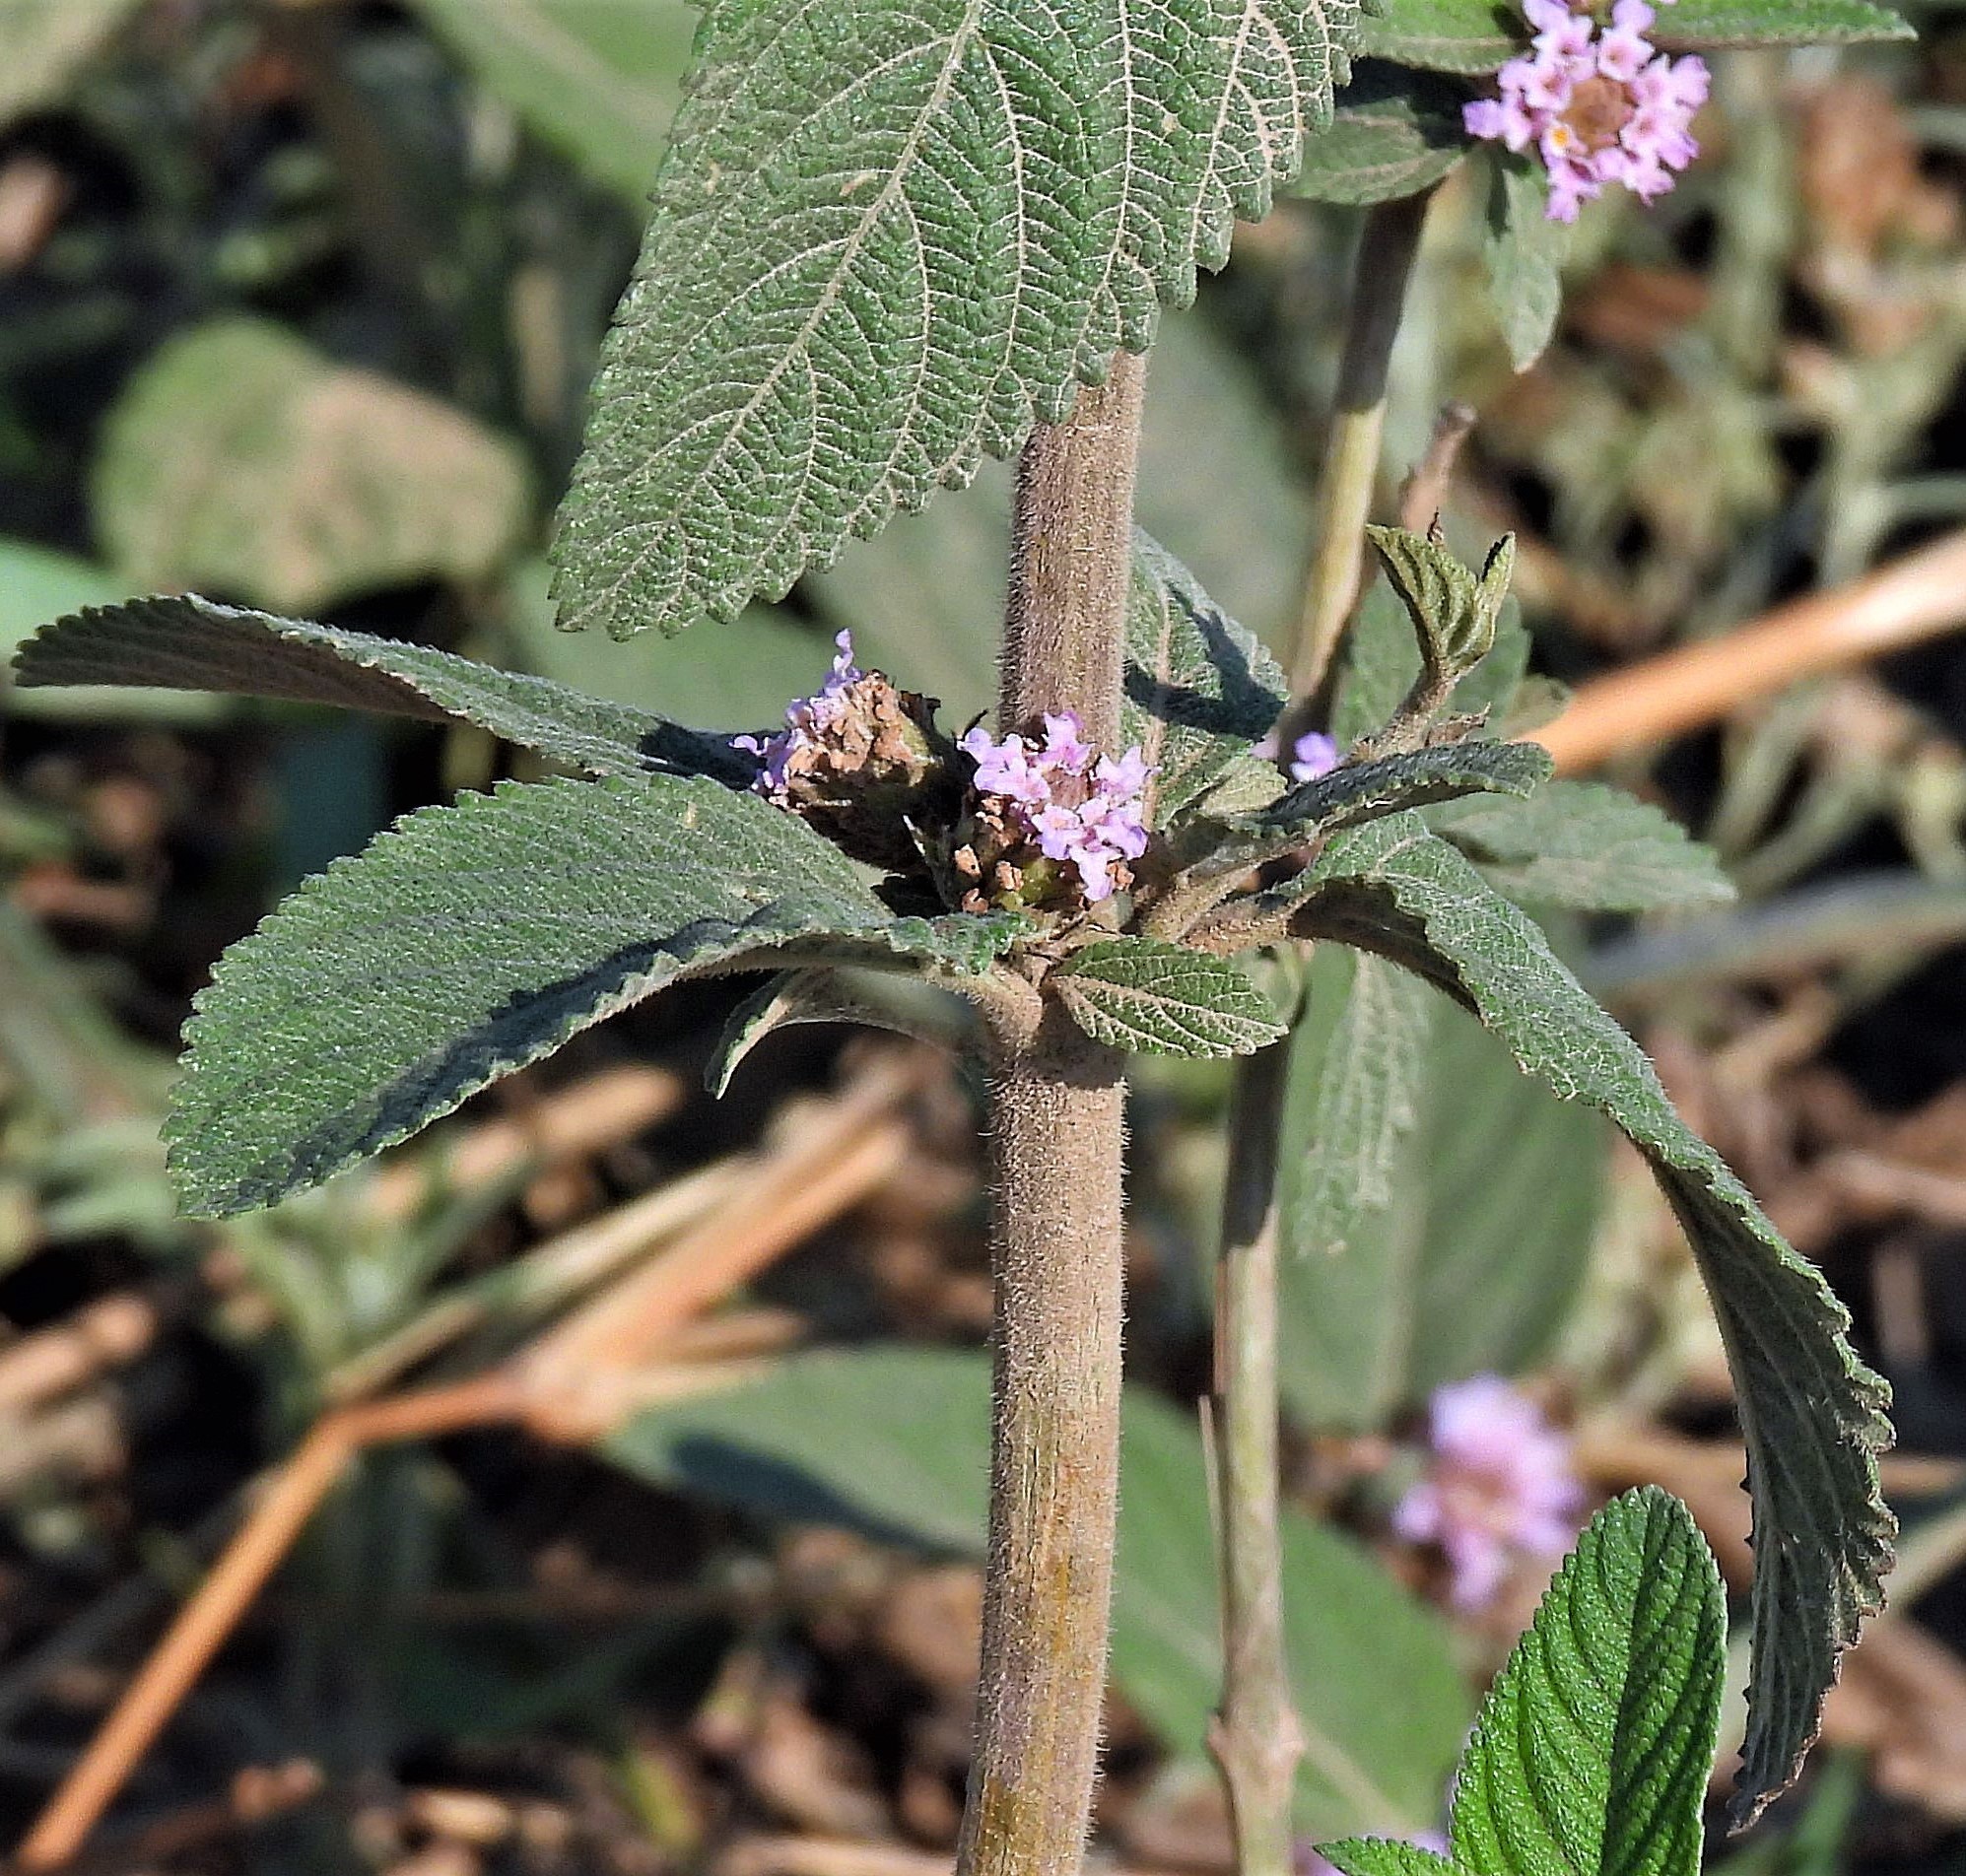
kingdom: Plantae
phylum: Tracheophyta
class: Magnoliopsida
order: Lamiales
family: Verbenaceae
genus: Lippia
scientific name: Lippia alba
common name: Bushy matgrass
